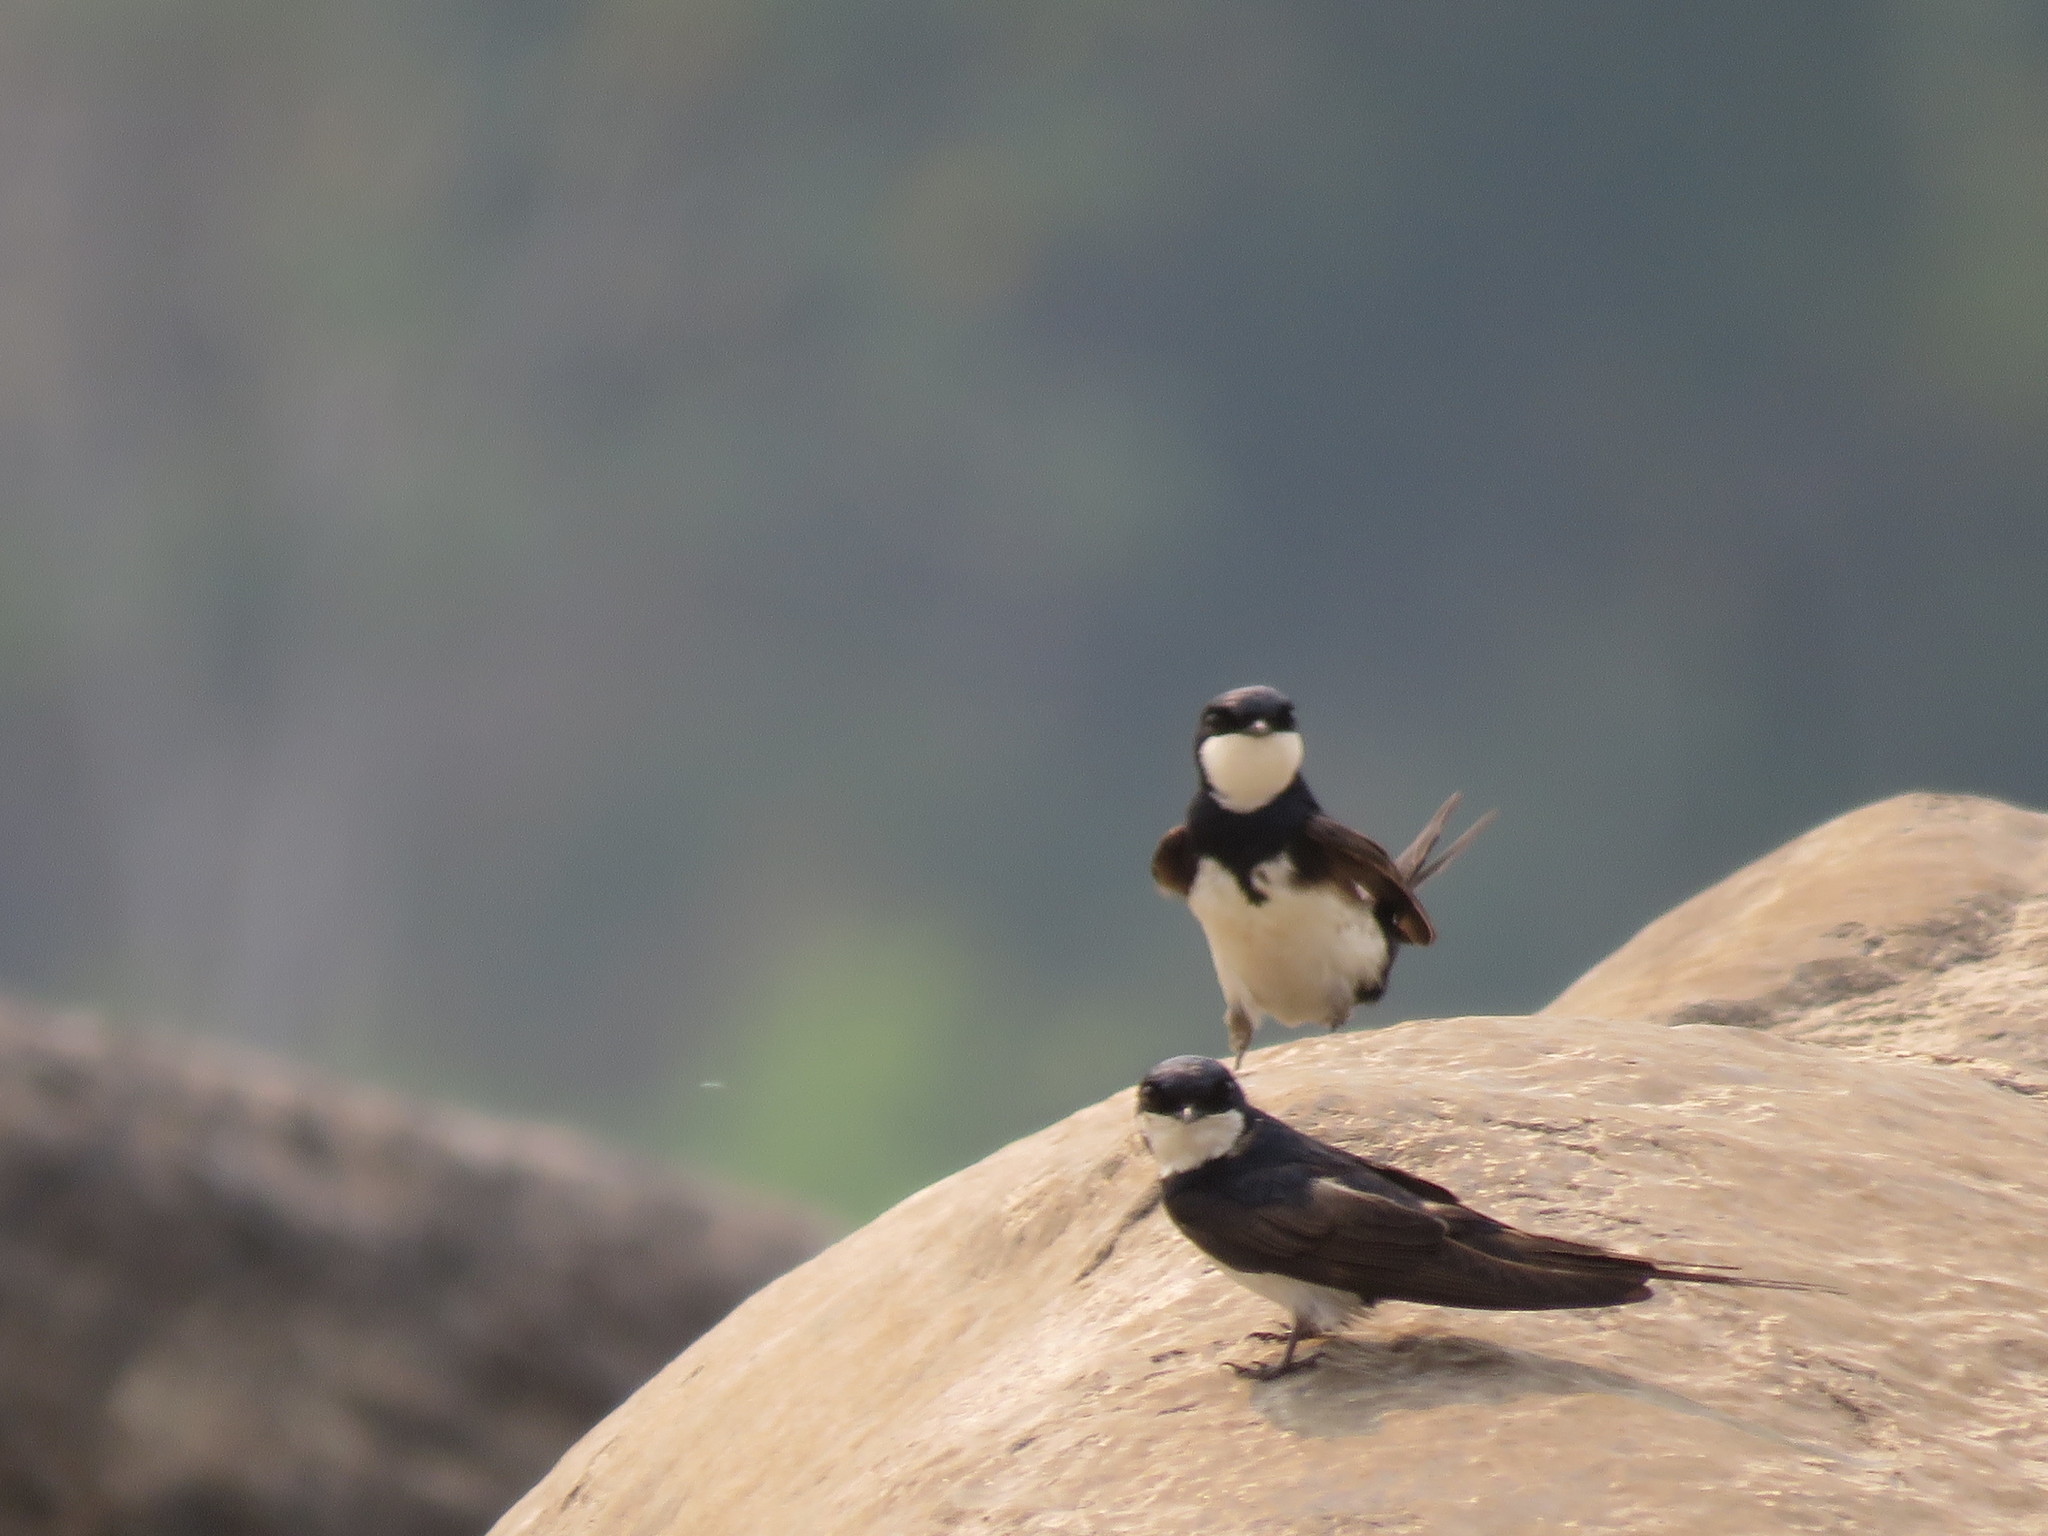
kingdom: Animalia
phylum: Chordata
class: Aves
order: Passeriformes
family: Hirundinidae
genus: Atticora
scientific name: Atticora melanoleuca
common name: Black-collared swallow
